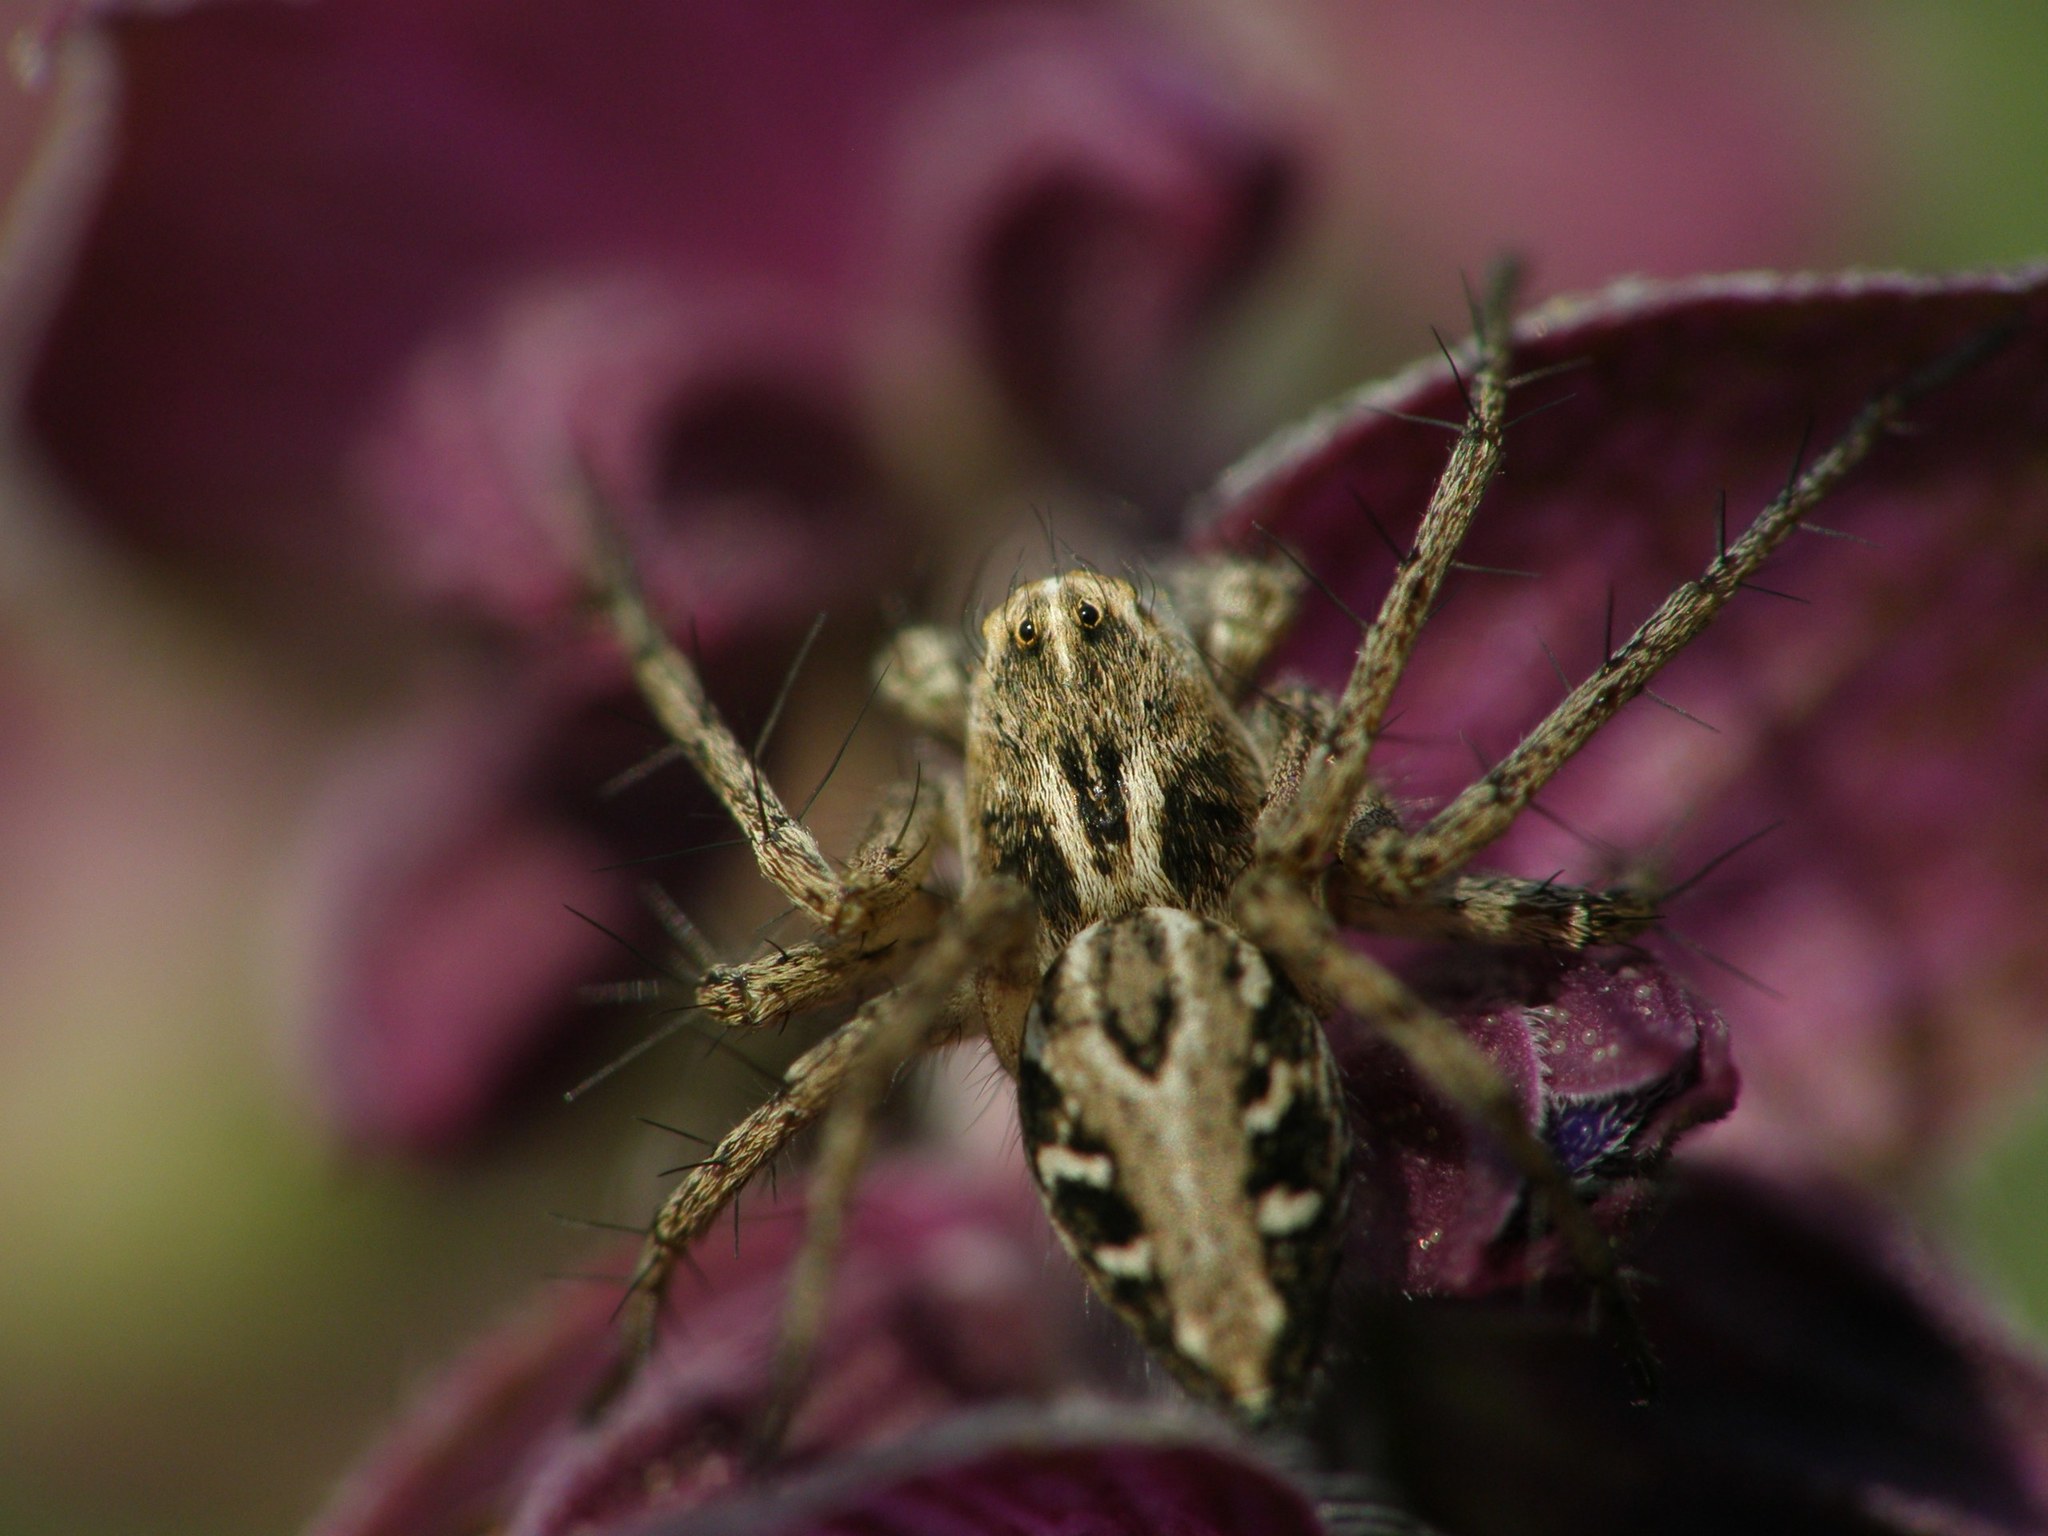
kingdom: Animalia
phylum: Arthropoda
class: Arachnida
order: Araneae
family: Oxyopidae
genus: Oxyopes
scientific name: Oxyopes heterophthalmus
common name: Lynx spider
